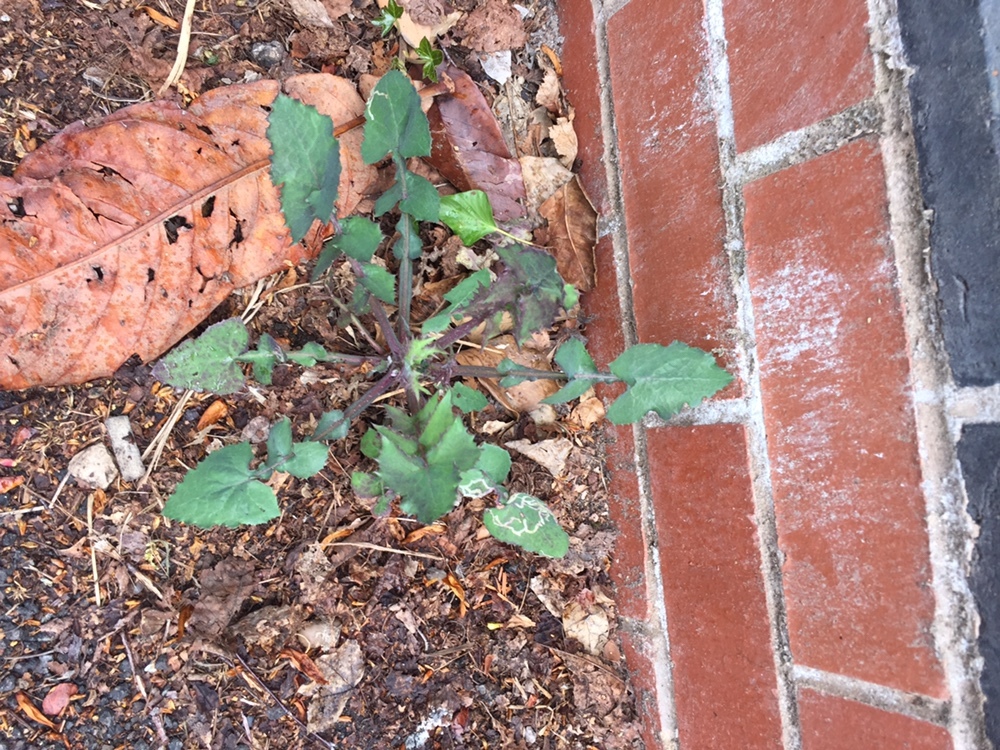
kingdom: Plantae
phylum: Tracheophyta
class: Magnoliopsida
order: Asterales
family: Asteraceae
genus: Sonchus
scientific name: Sonchus oleraceus
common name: Common sowthistle
